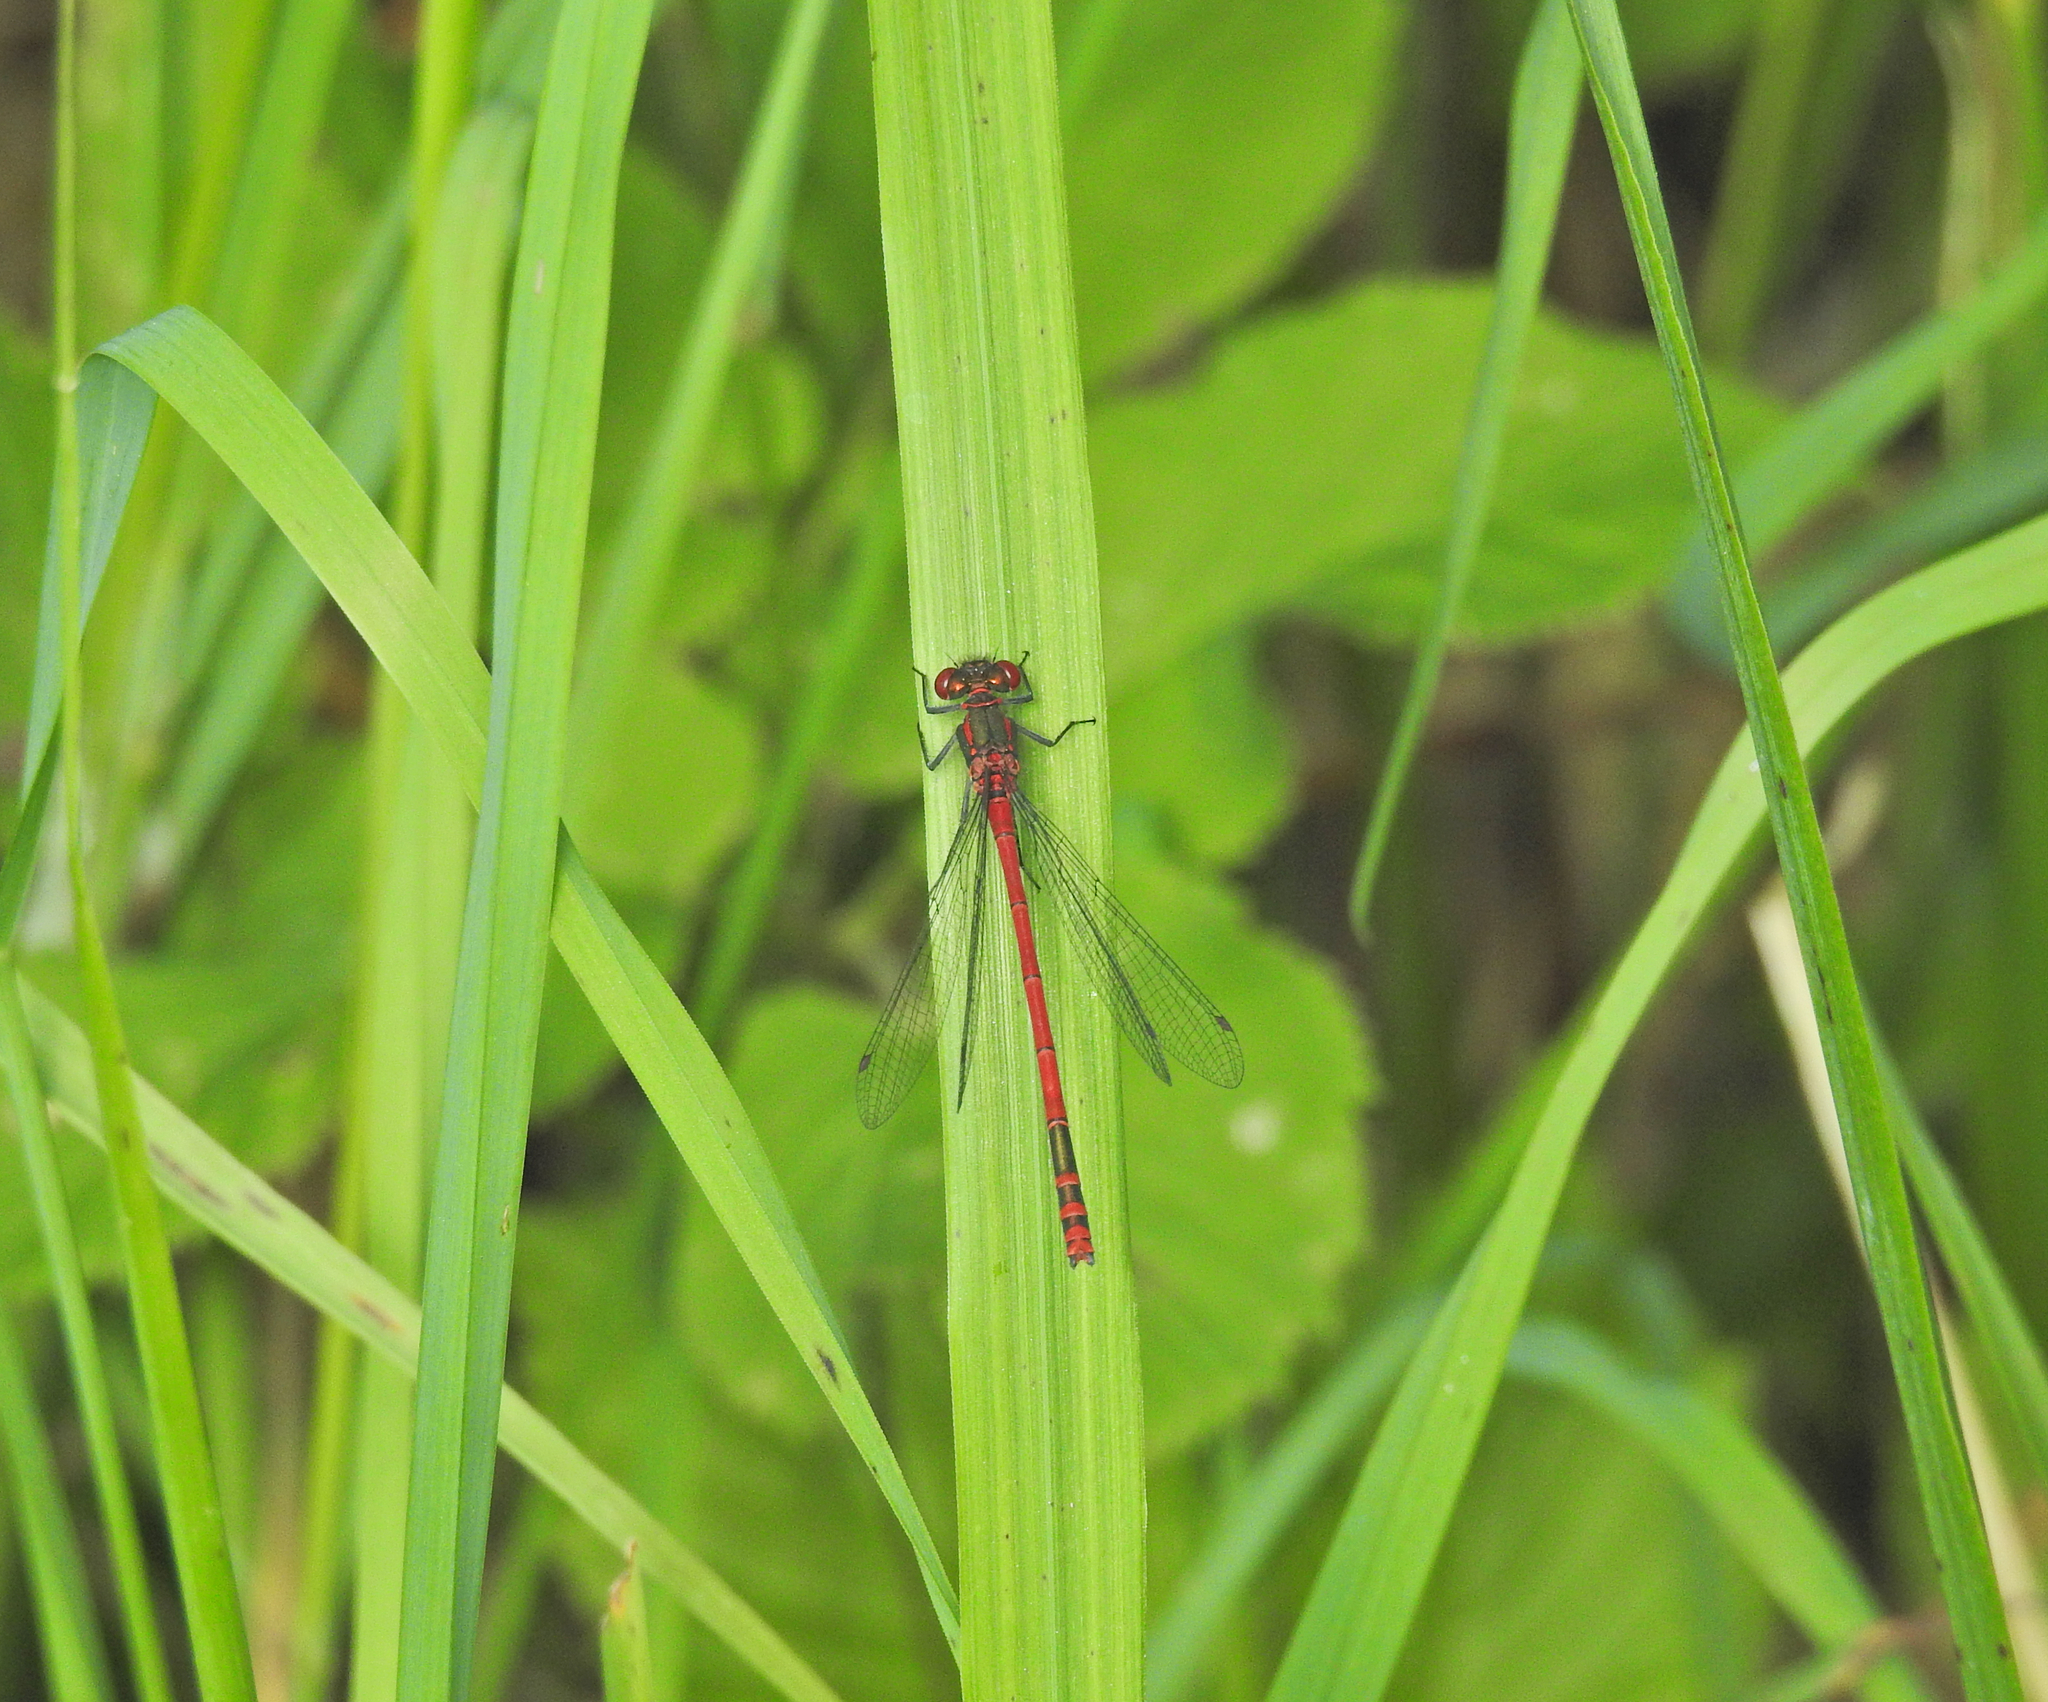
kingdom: Animalia
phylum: Arthropoda
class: Insecta
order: Odonata
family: Coenagrionidae
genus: Pyrrhosoma
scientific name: Pyrrhosoma nymphula
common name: Large red damsel
